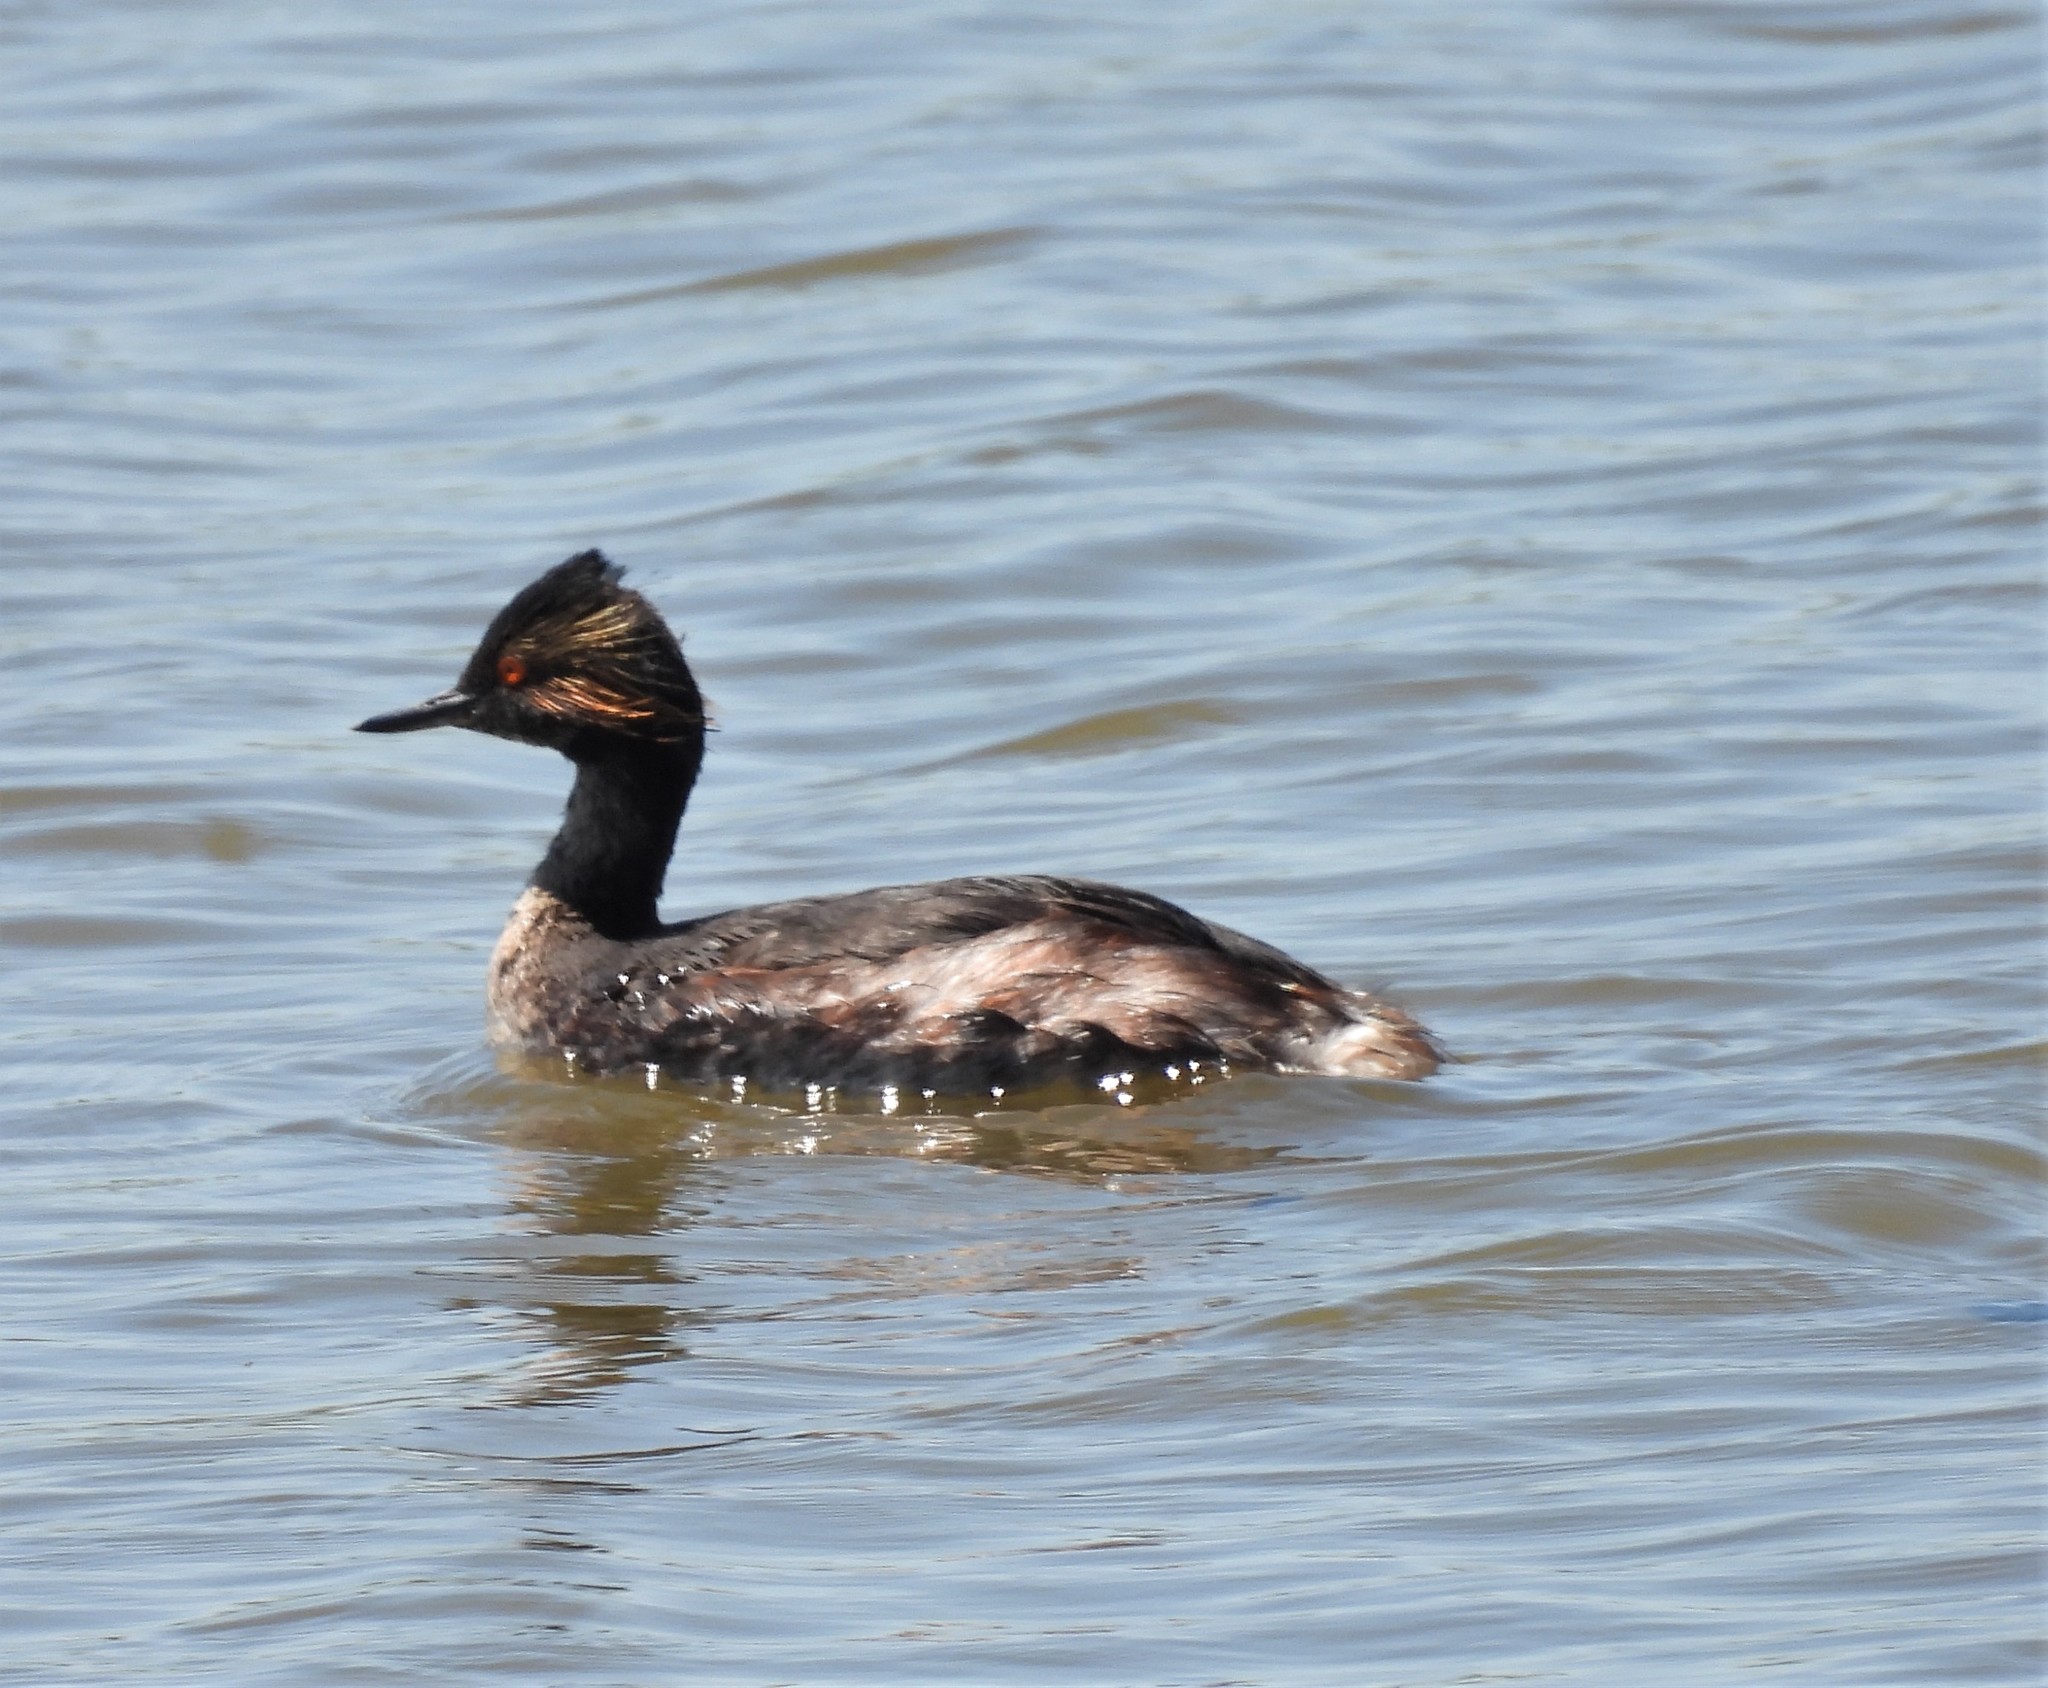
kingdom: Animalia
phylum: Chordata
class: Aves
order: Podicipediformes
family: Podicipedidae
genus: Podiceps
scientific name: Podiceps nigricollis
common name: Black-necked grebe
